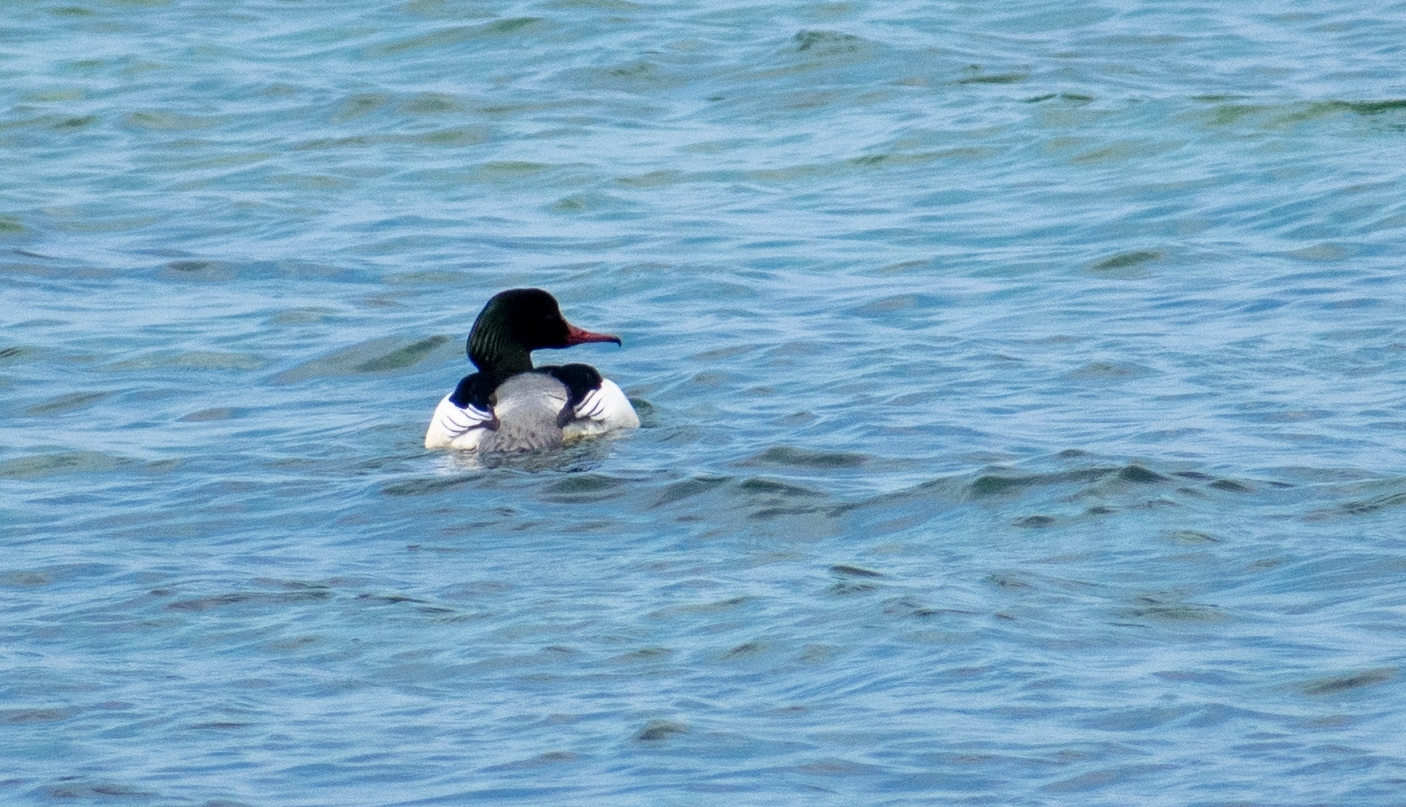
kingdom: Animalia
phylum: Chordata
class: Aves
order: Anseriformes
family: Anatidae
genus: Mergus
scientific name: Mergus merganser
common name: Common merganser
